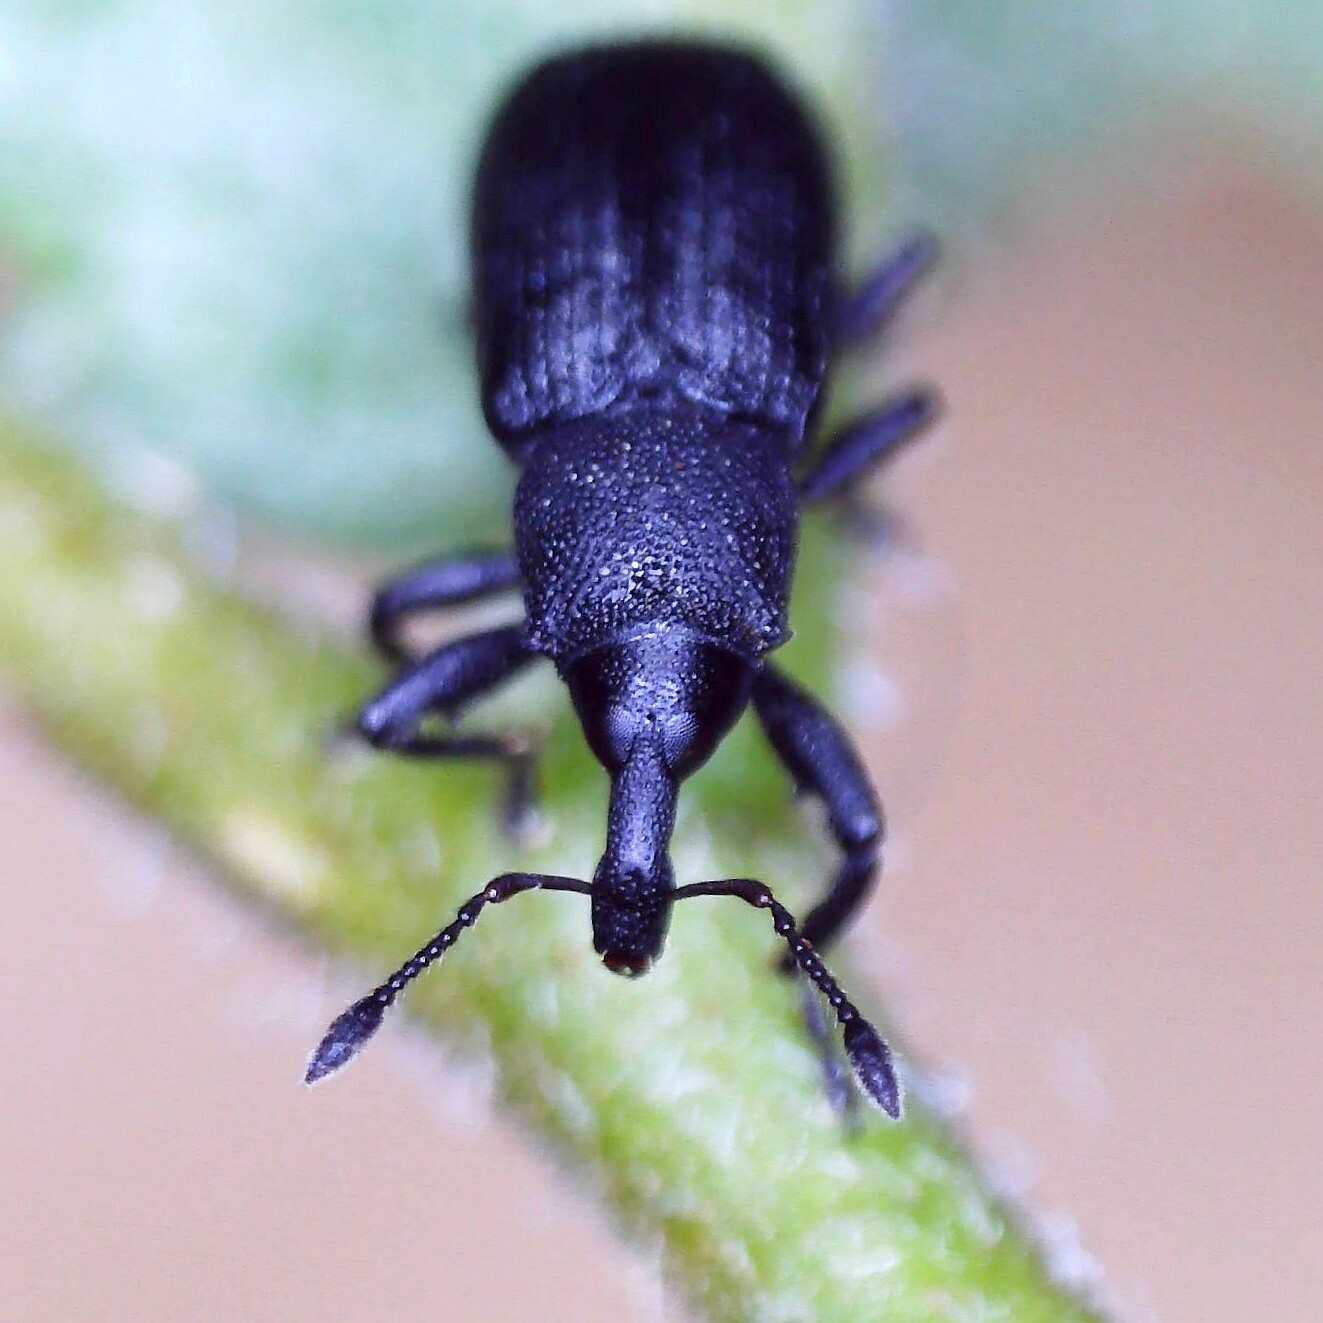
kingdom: Animalia
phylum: Arthropoda
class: Insecta
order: Coleoptera
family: Curculionidae
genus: Magdalis
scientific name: Magdalis armigera
